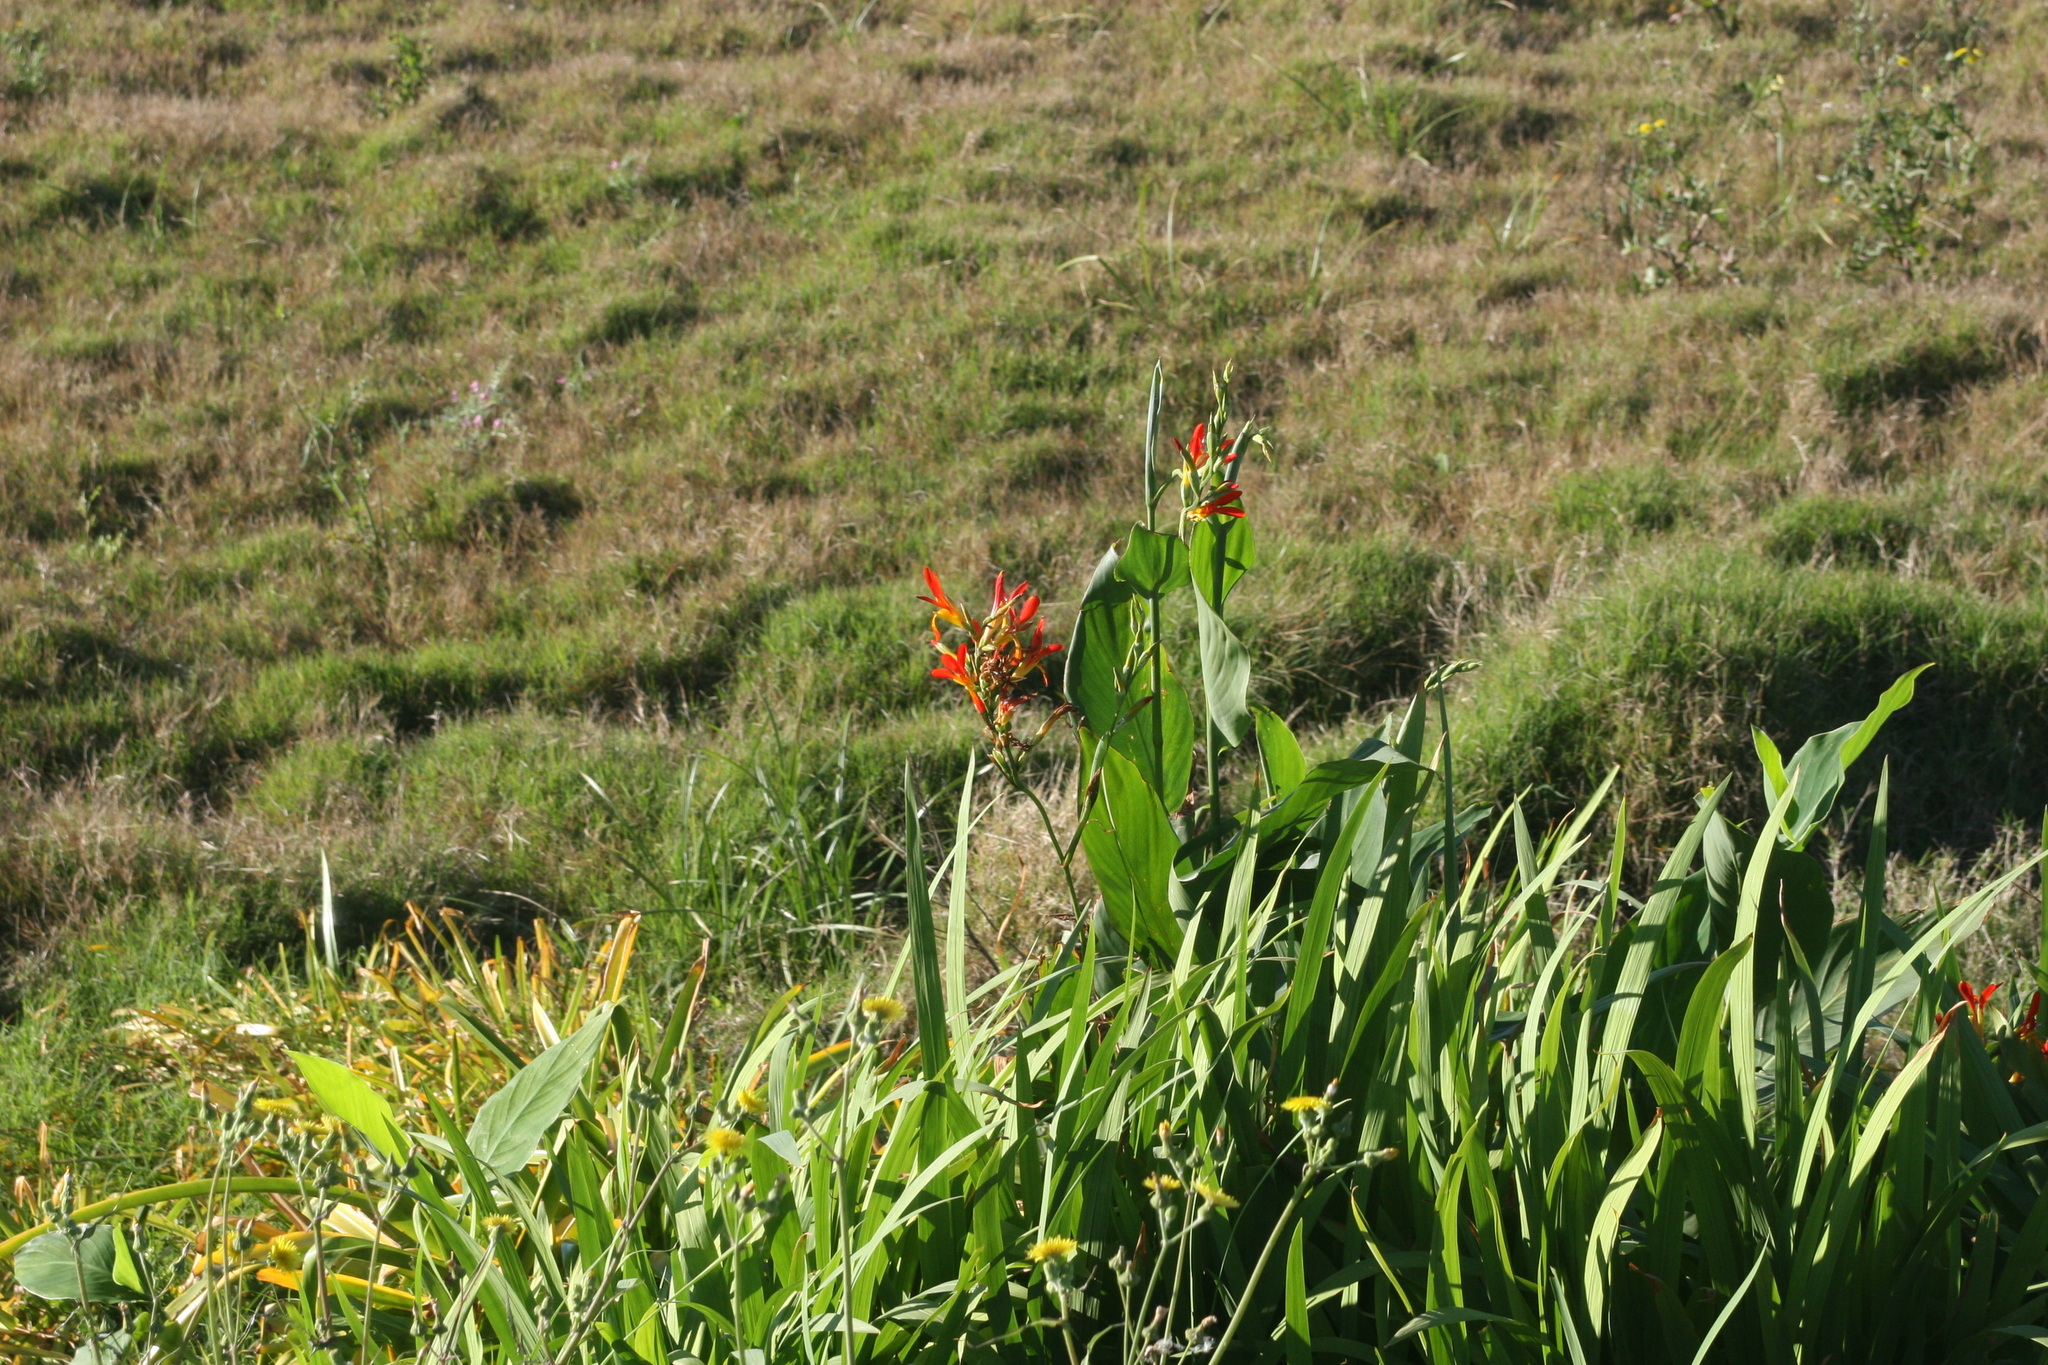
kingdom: Plantae
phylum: Tracheophyta
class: Liliopsida
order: Zingiberales
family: Cannaceae
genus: Canna
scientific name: Canna indica
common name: Indian shot
